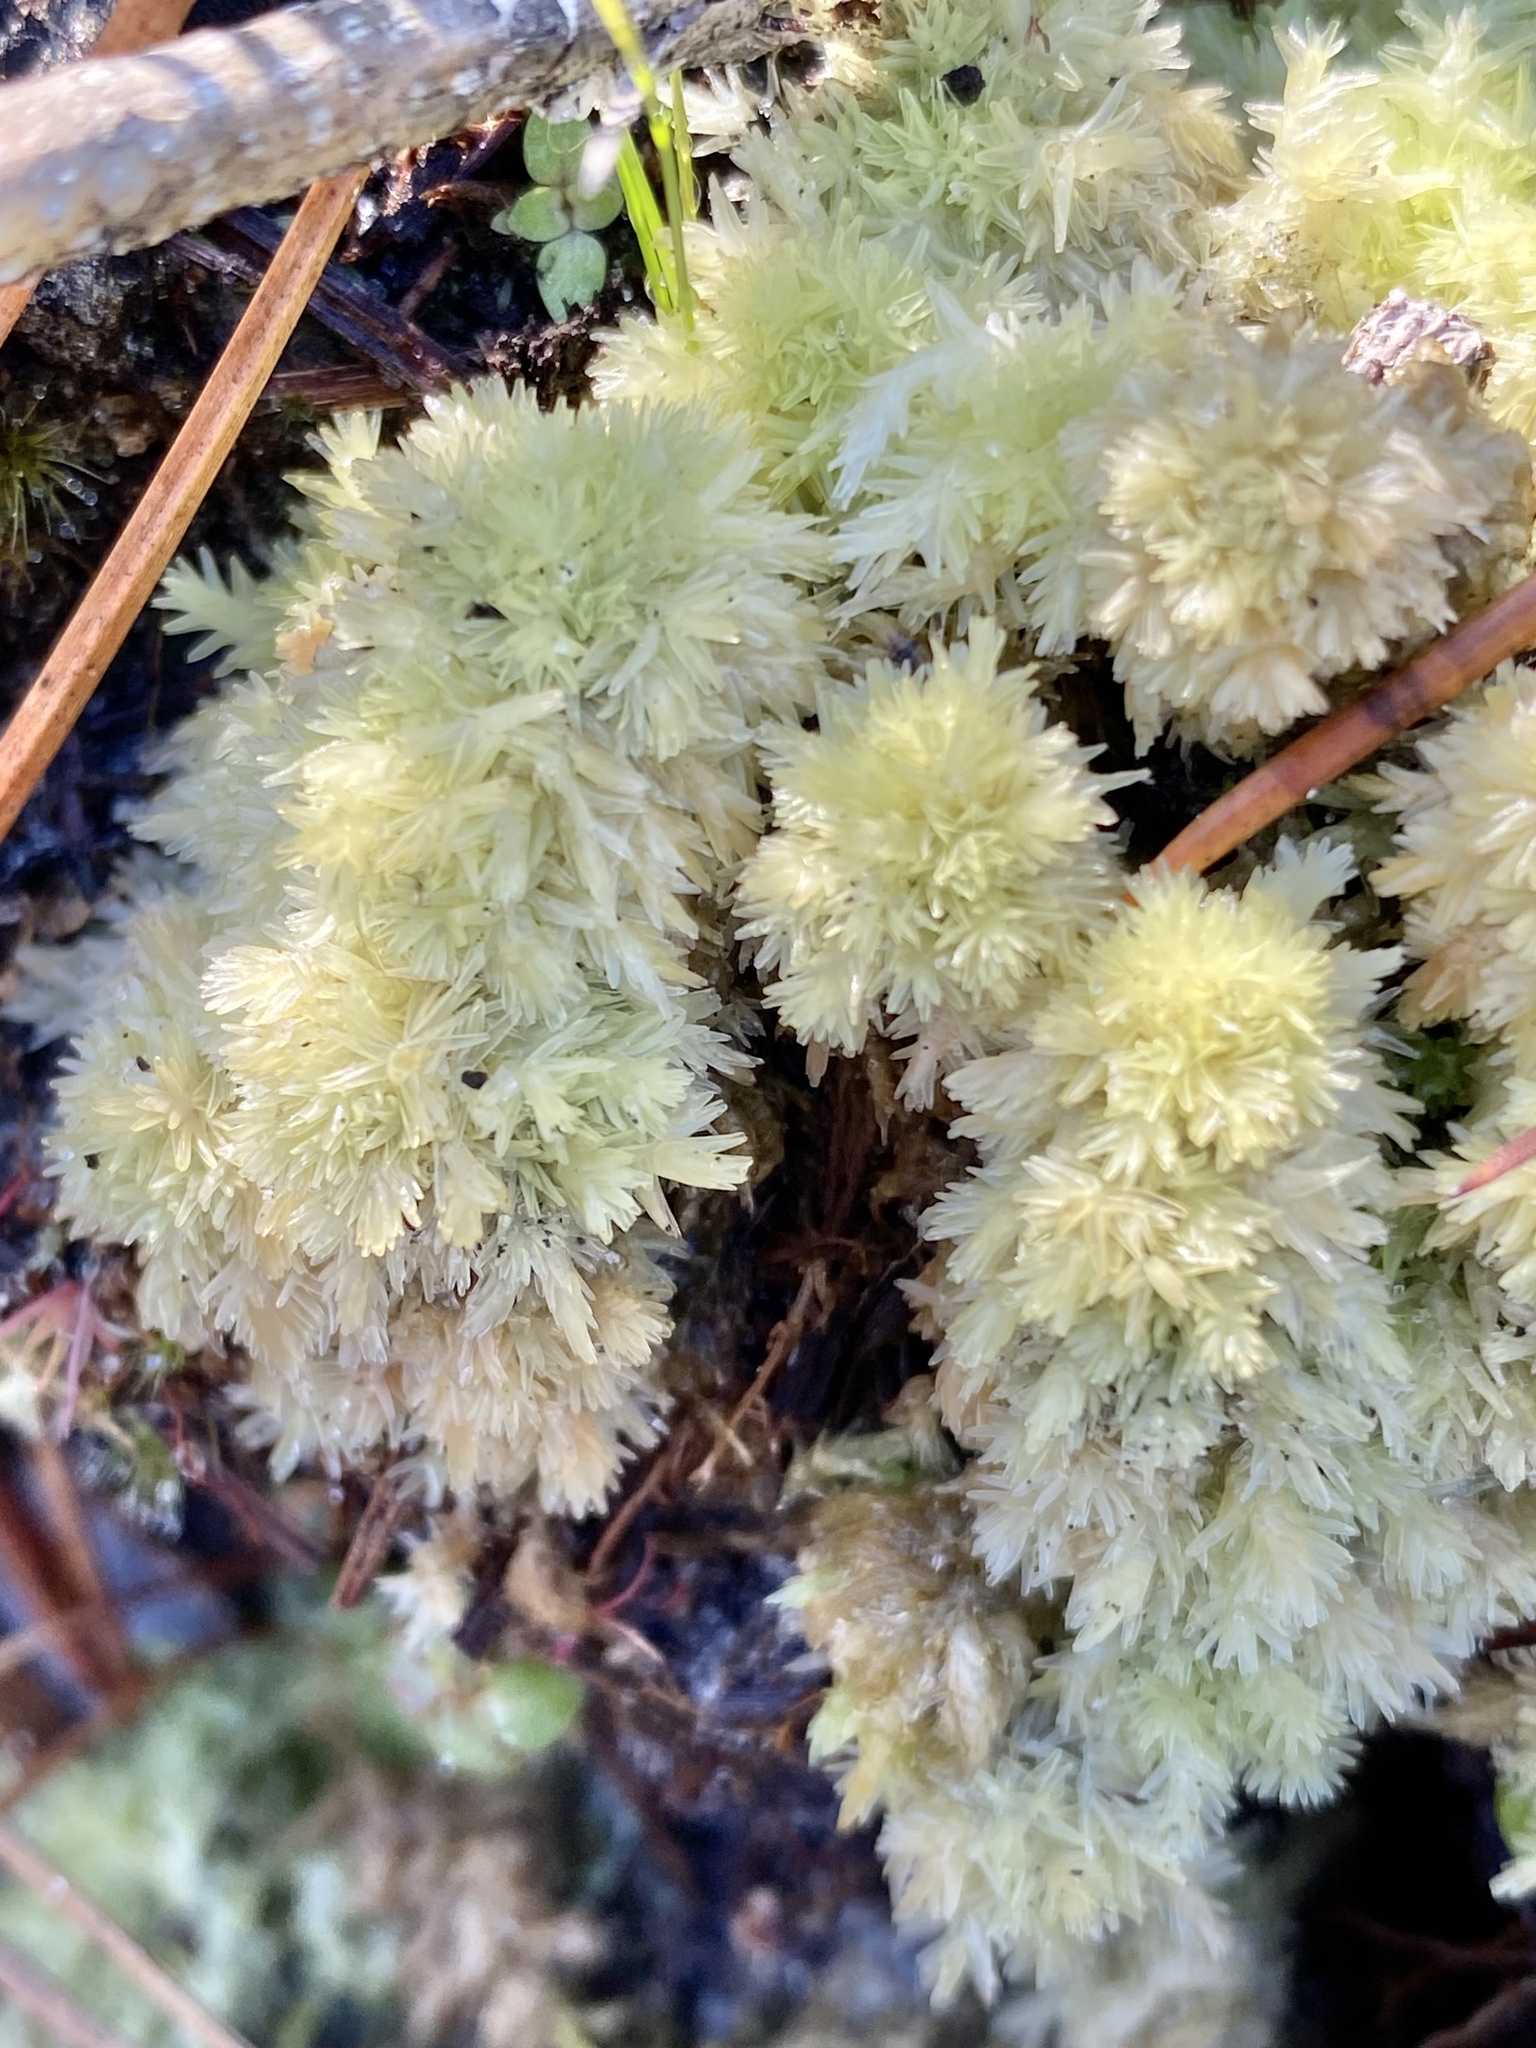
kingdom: Plantae
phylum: Bryophyta
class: Sphagnopsida
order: Sphagnales
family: Sphagnaceae
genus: Sphagnum
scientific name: Sphagnum strictum
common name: Pale bog-moss
